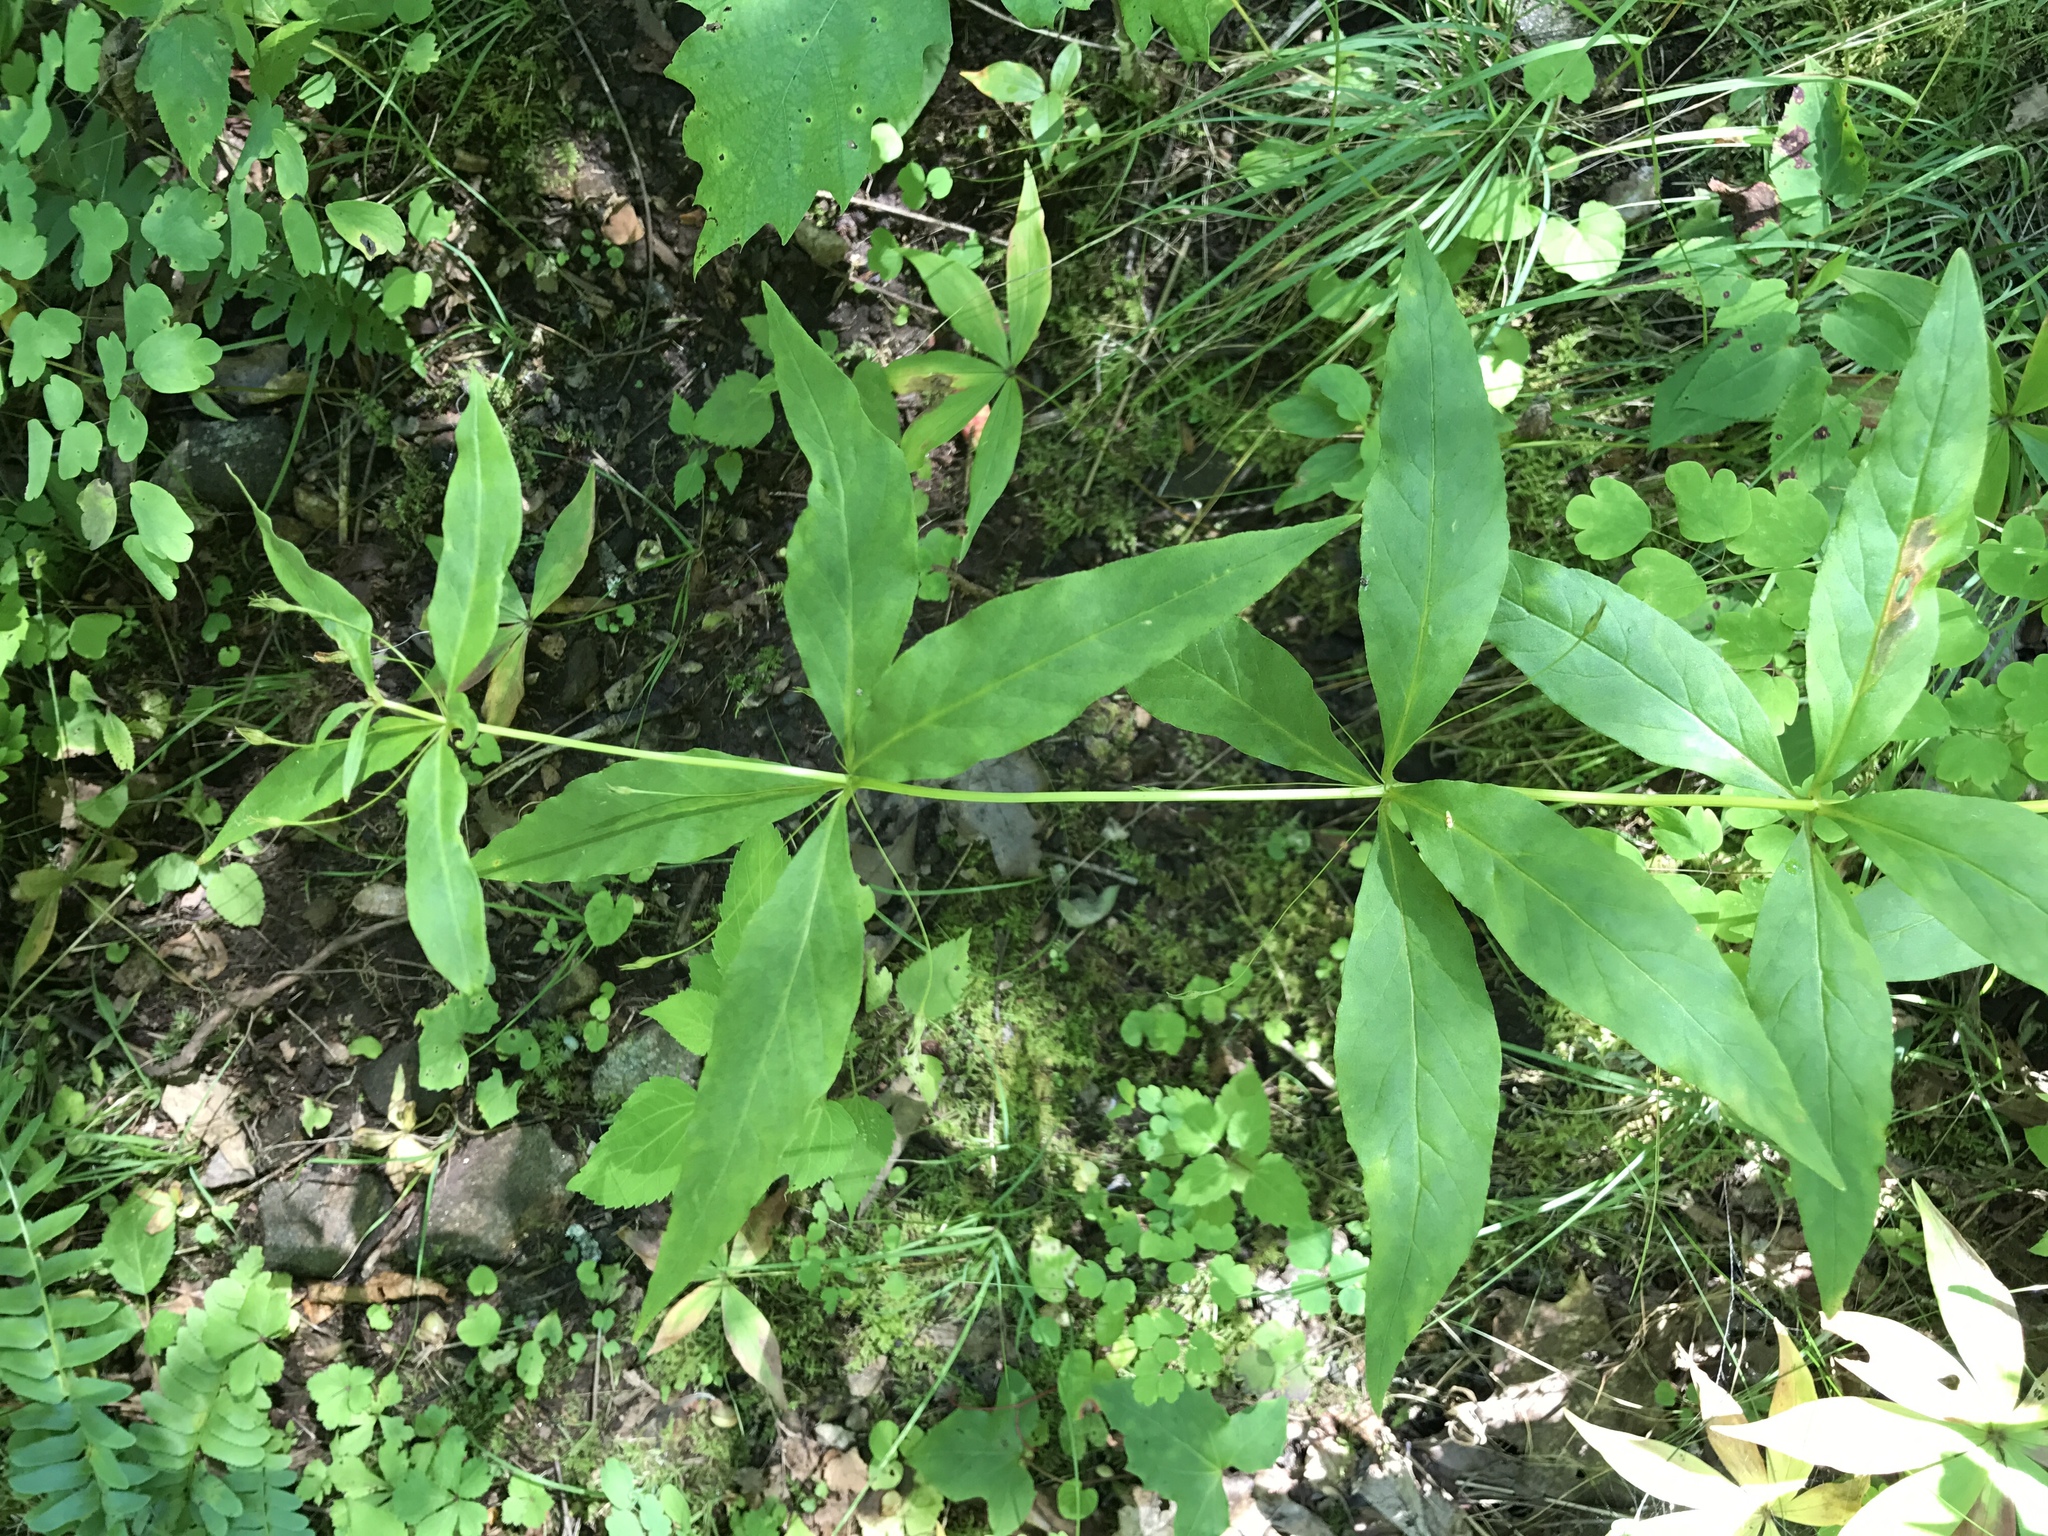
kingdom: Plantae
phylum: Tracheophyta
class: Magnoliopsida
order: Ericales
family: Primulaceae
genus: Lysimachia
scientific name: Lysimachia quadrifolia
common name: Whorled loosestrife
